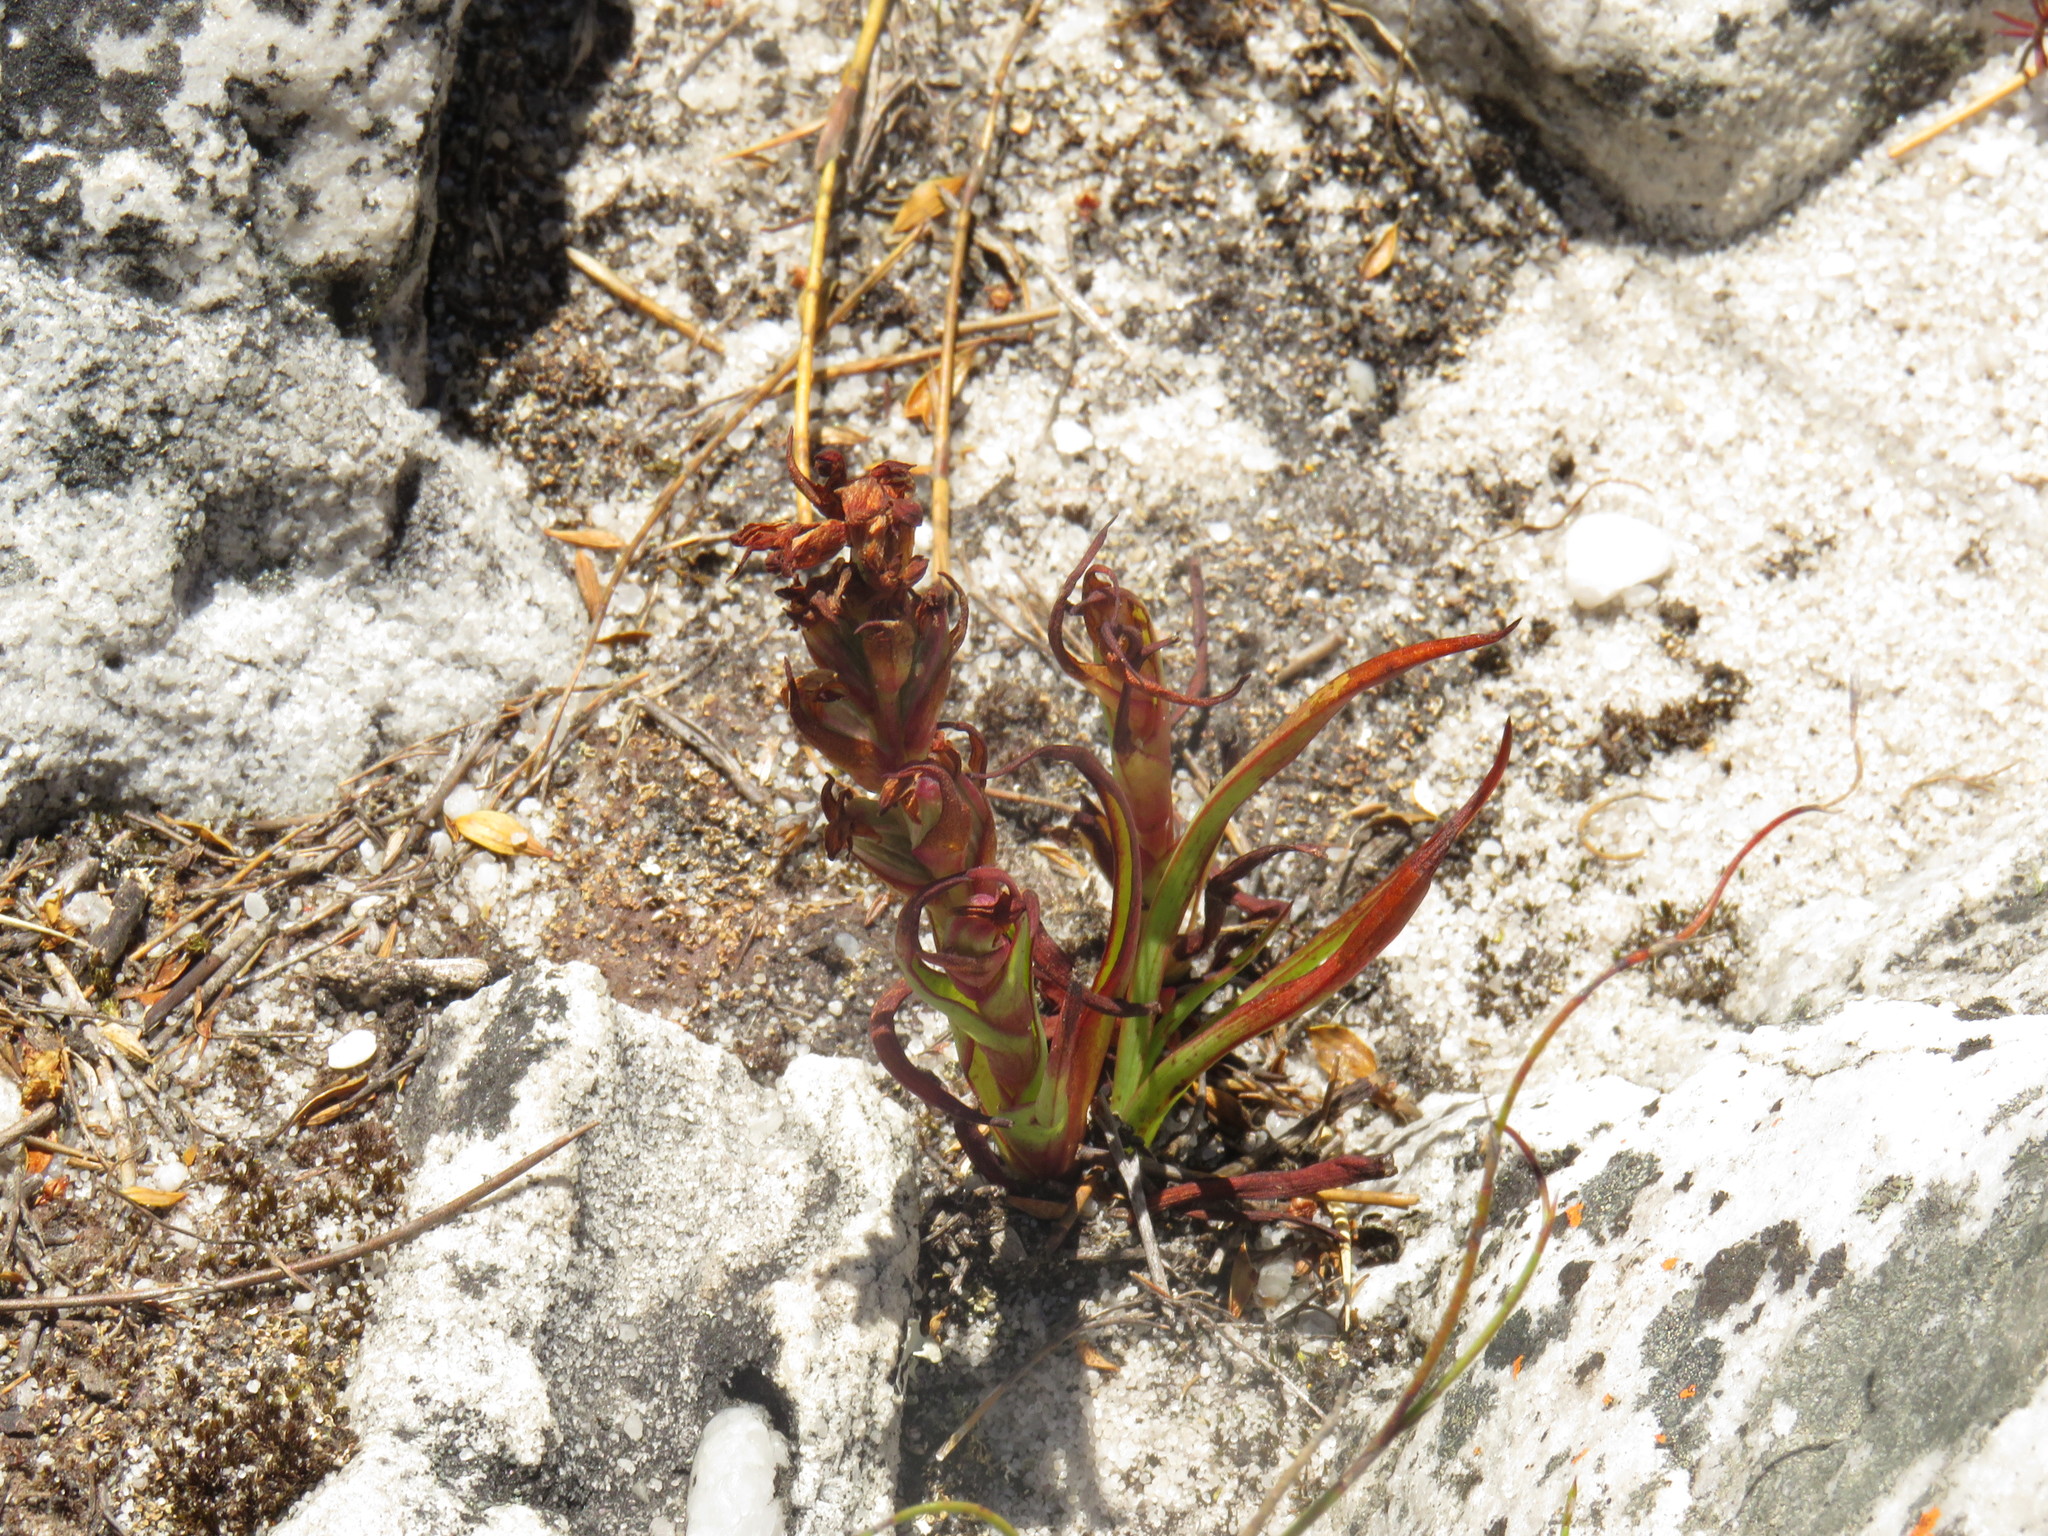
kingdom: Plantae
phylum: Tracheophyta
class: Liliopsida
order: Asparagales
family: Orchidaceae
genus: Disa
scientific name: Disa bracteata
